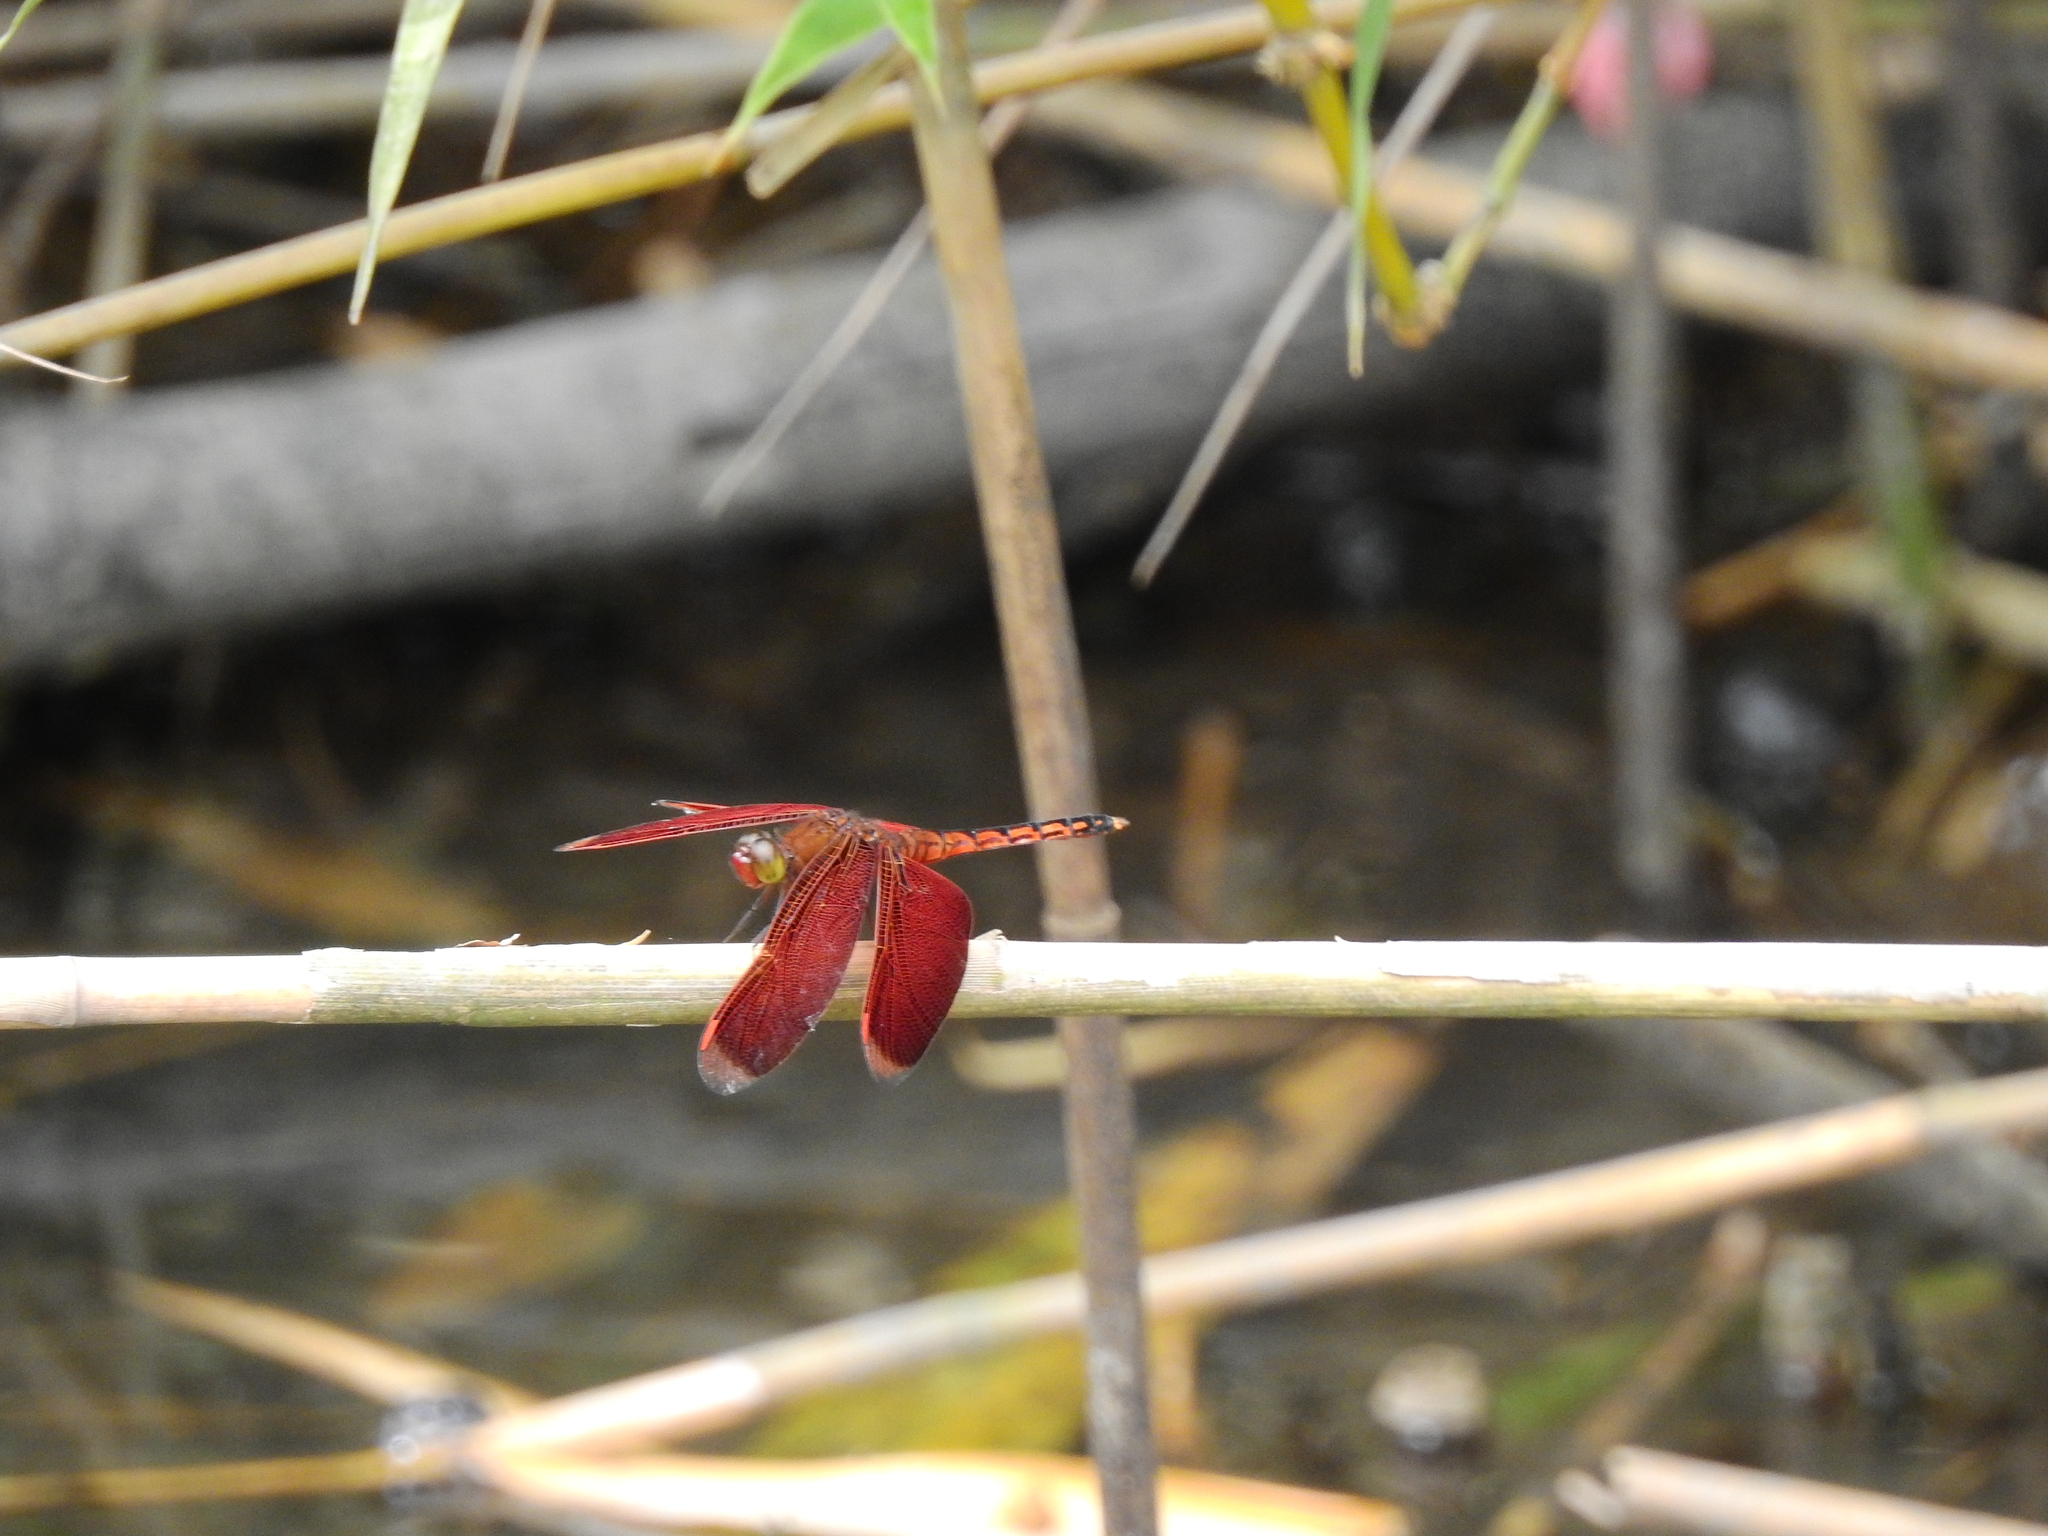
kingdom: Animalia
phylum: Arthropoda
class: Insecta
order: Odonata
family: Libellulidae
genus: Neurothemis
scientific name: Neurothemis taiwanensis
